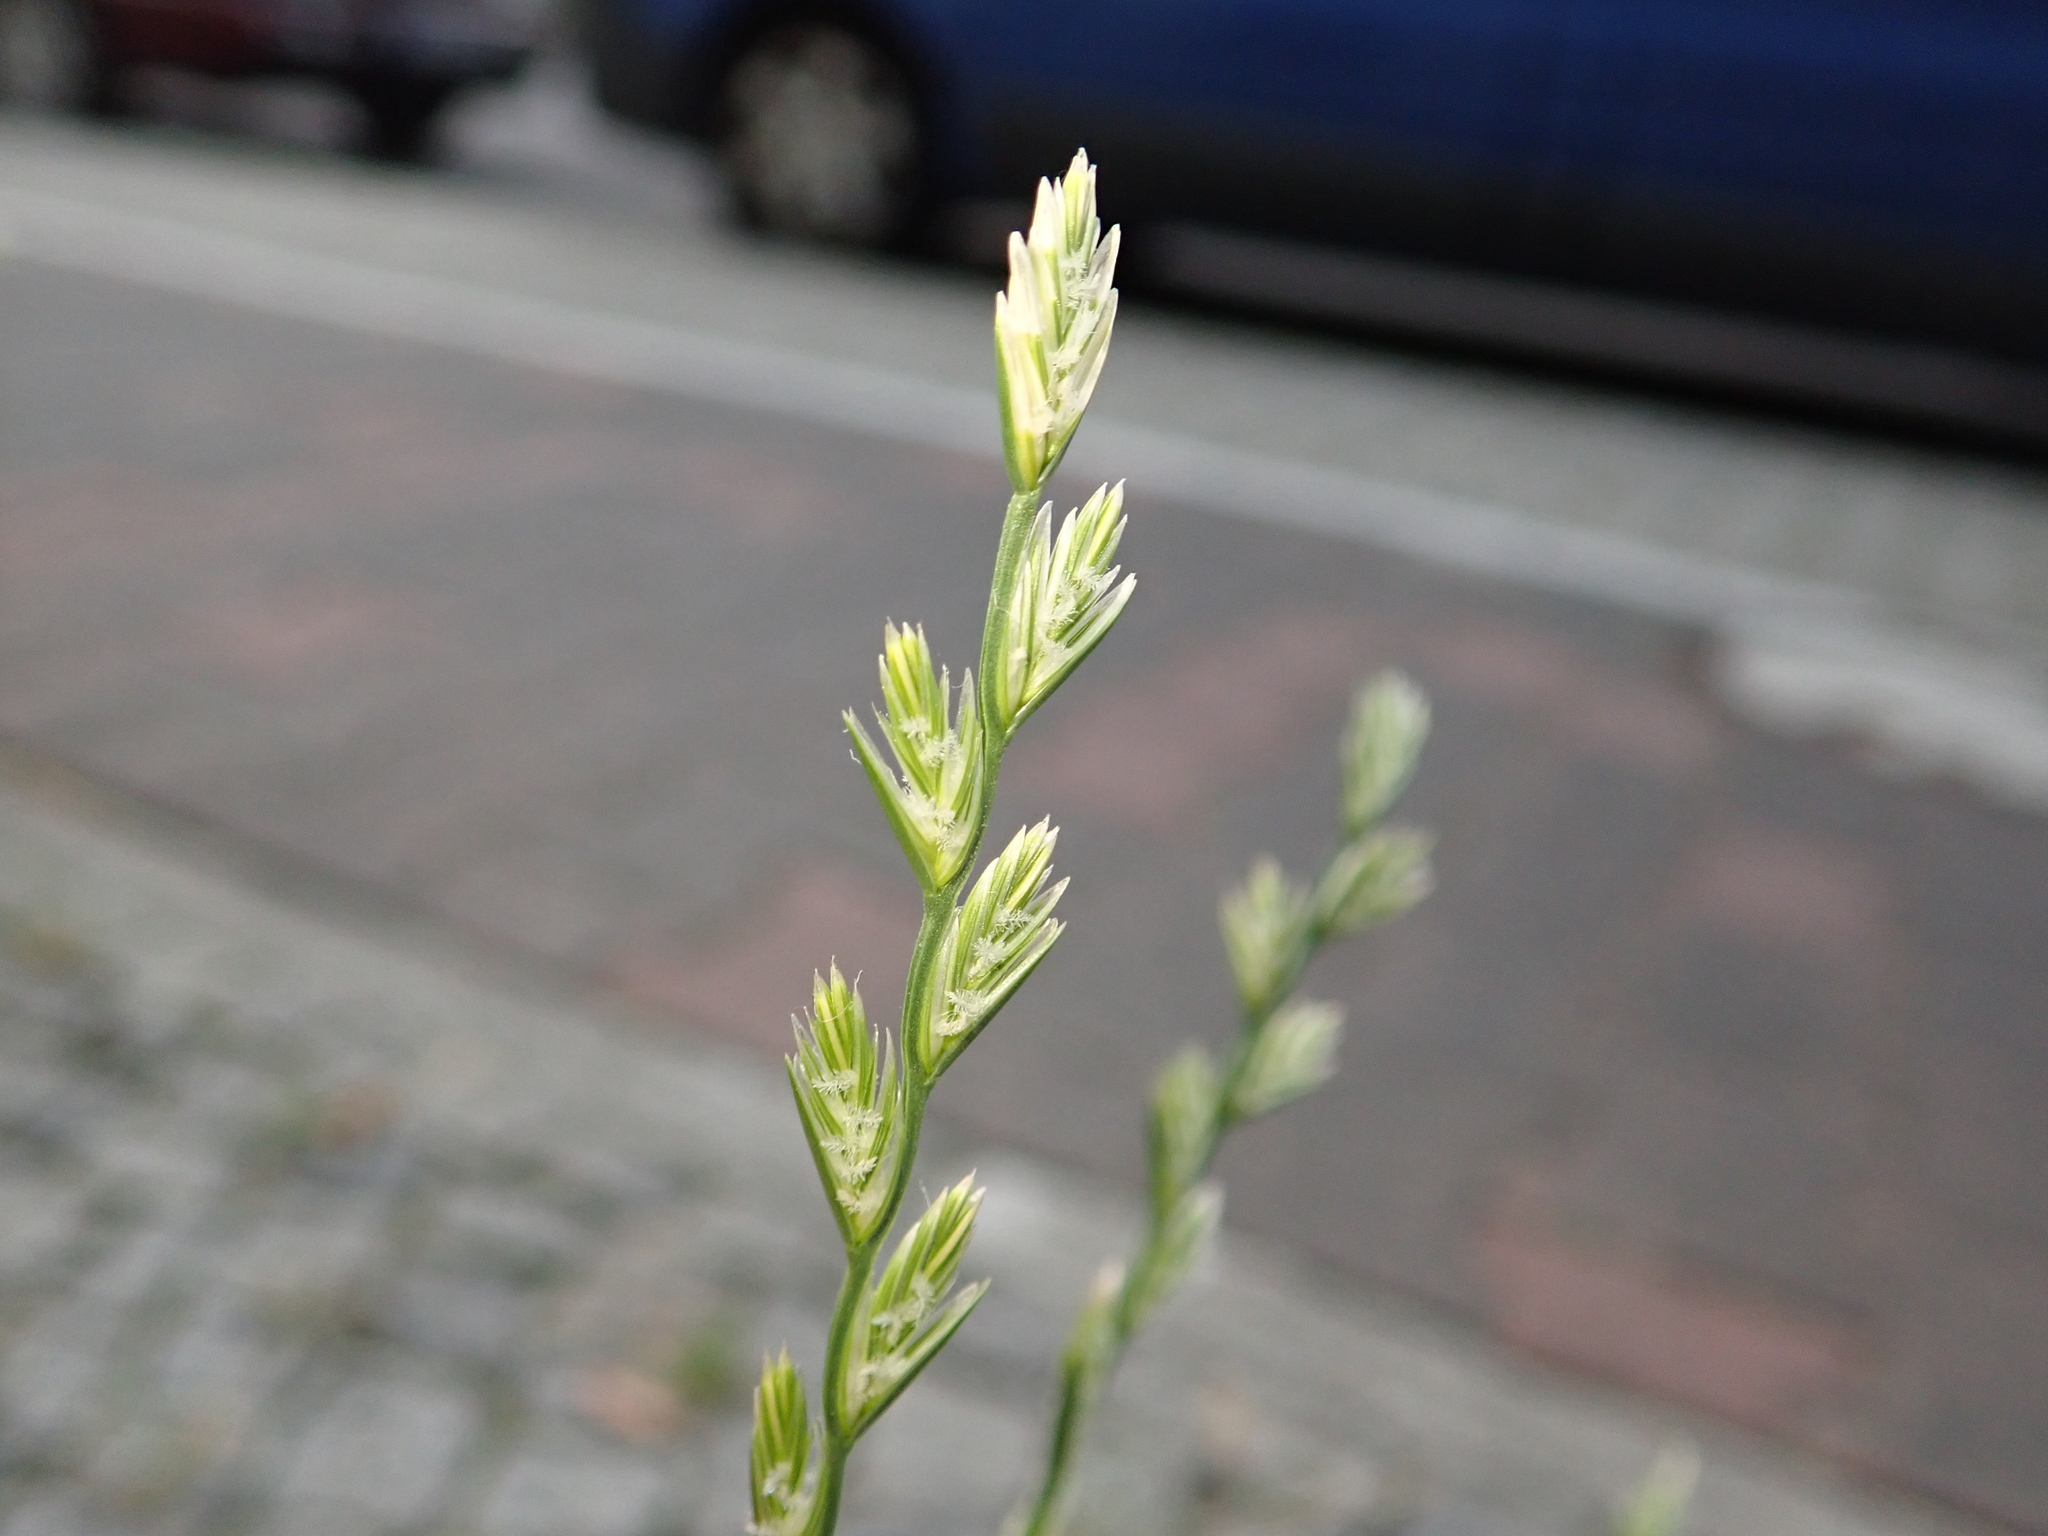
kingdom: Plantae
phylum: Tracheophyta
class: Liliopsida
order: Poales
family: Poaceae
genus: Lolium
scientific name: Lolium perenne
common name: Perennial ryegrass
